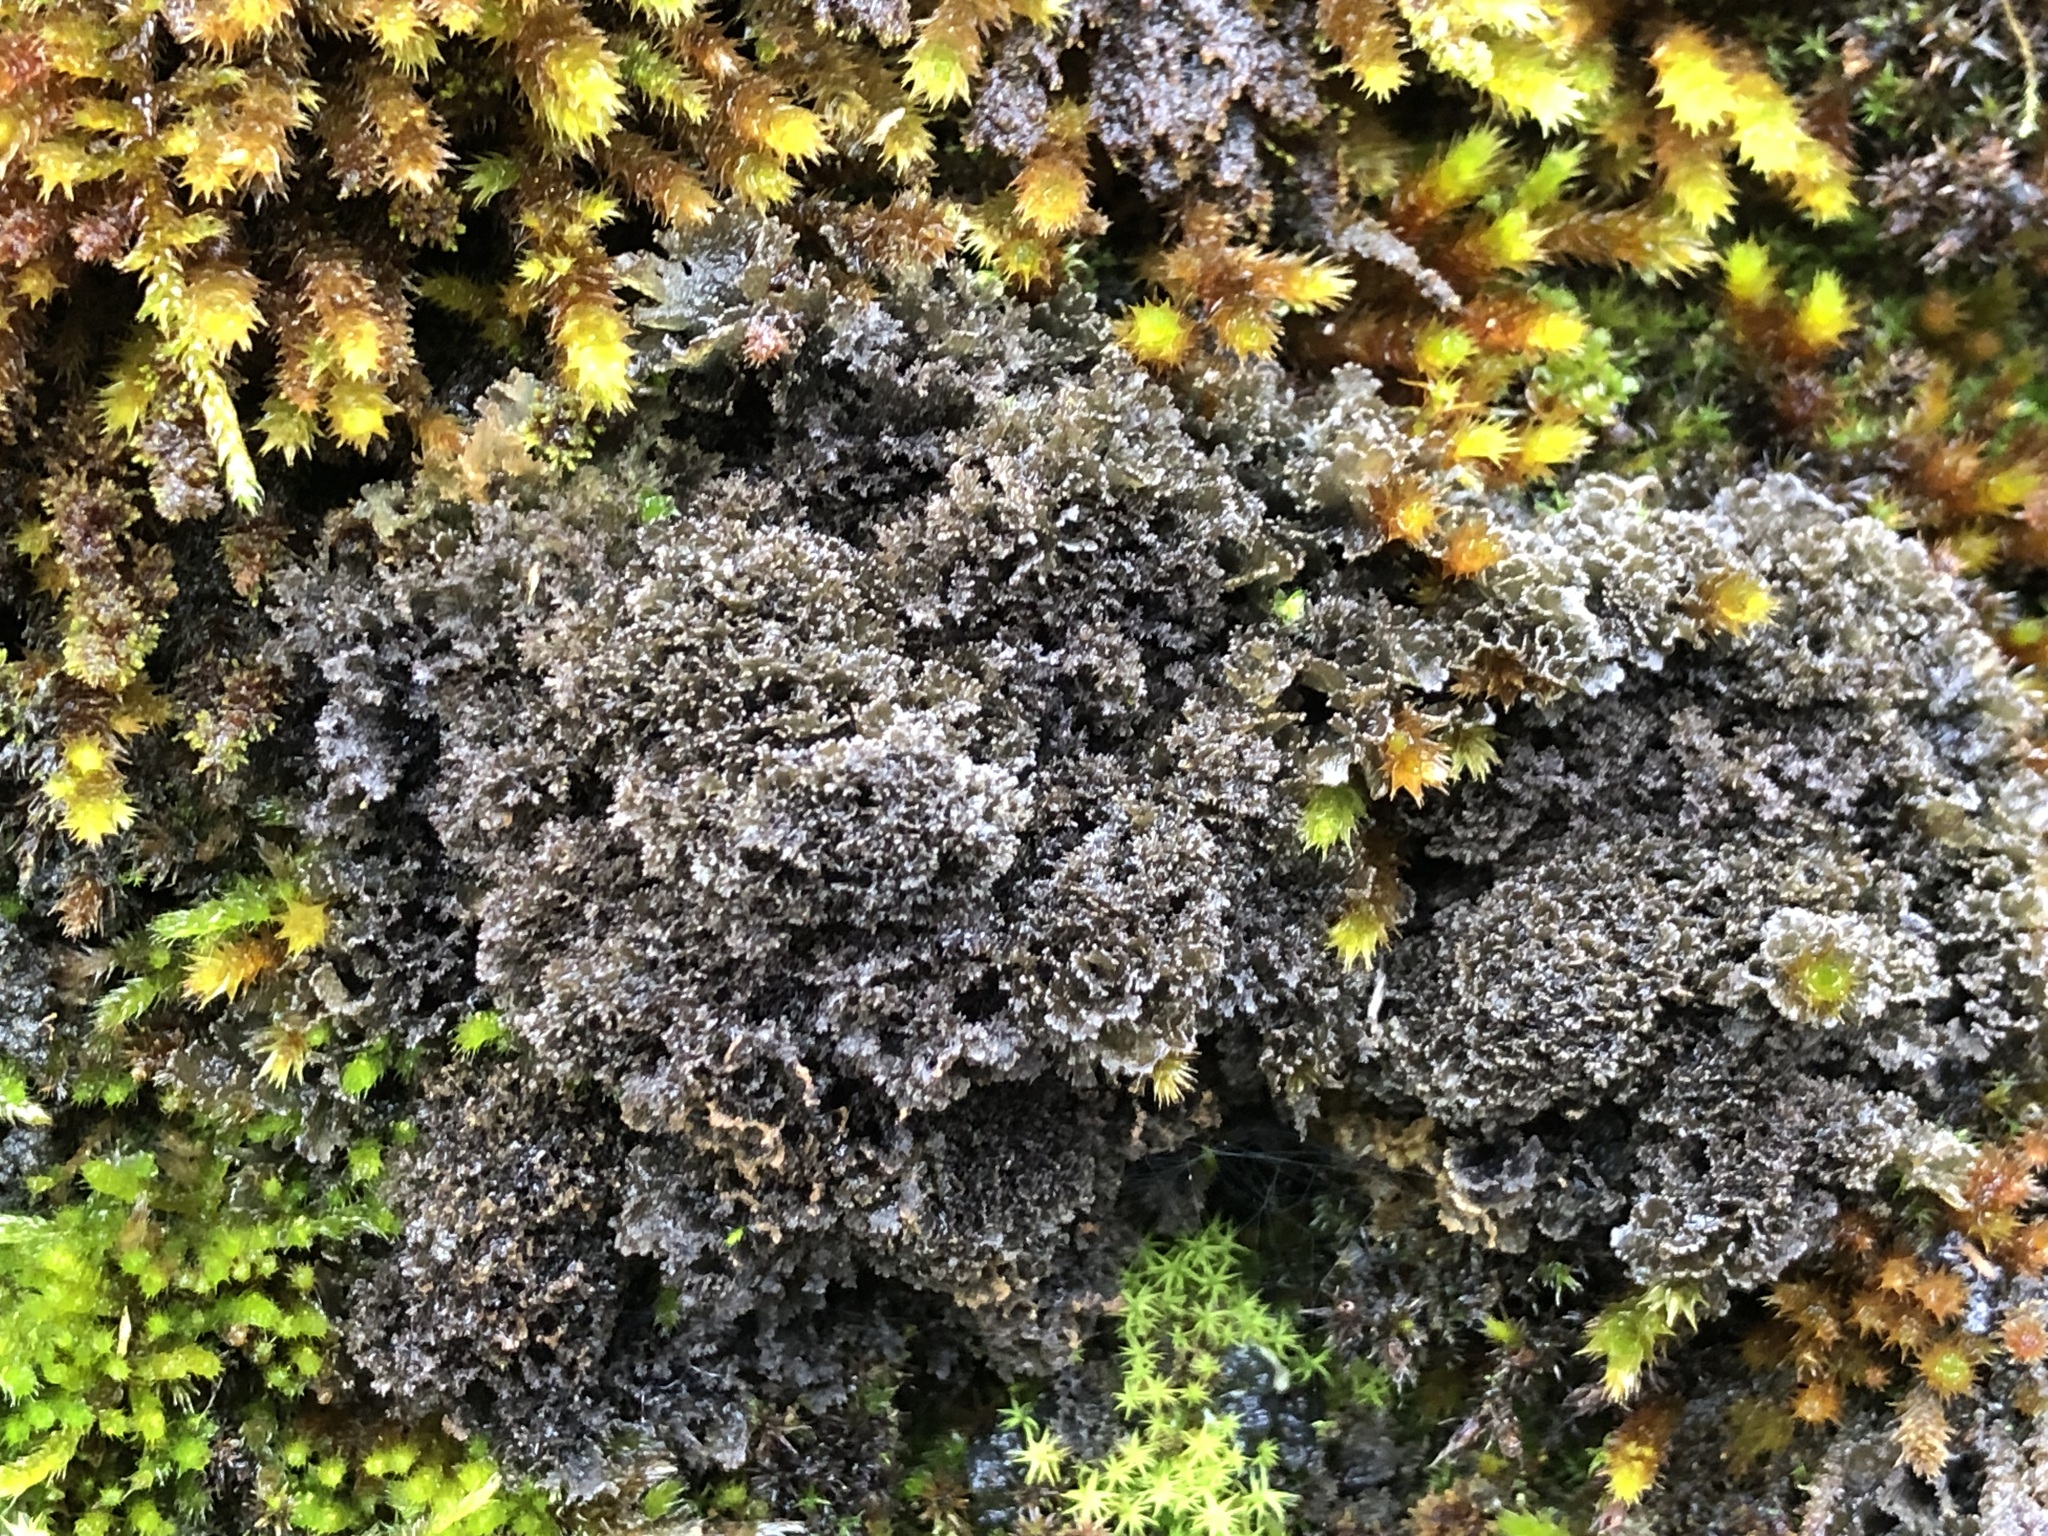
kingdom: Fungi
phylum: Ascomycota
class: Lecanoromycetes
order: Peltigerales
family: Collemataceae
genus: Scytinium
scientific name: Scytinium lichenoides
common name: Tattered jellyskin lichen
